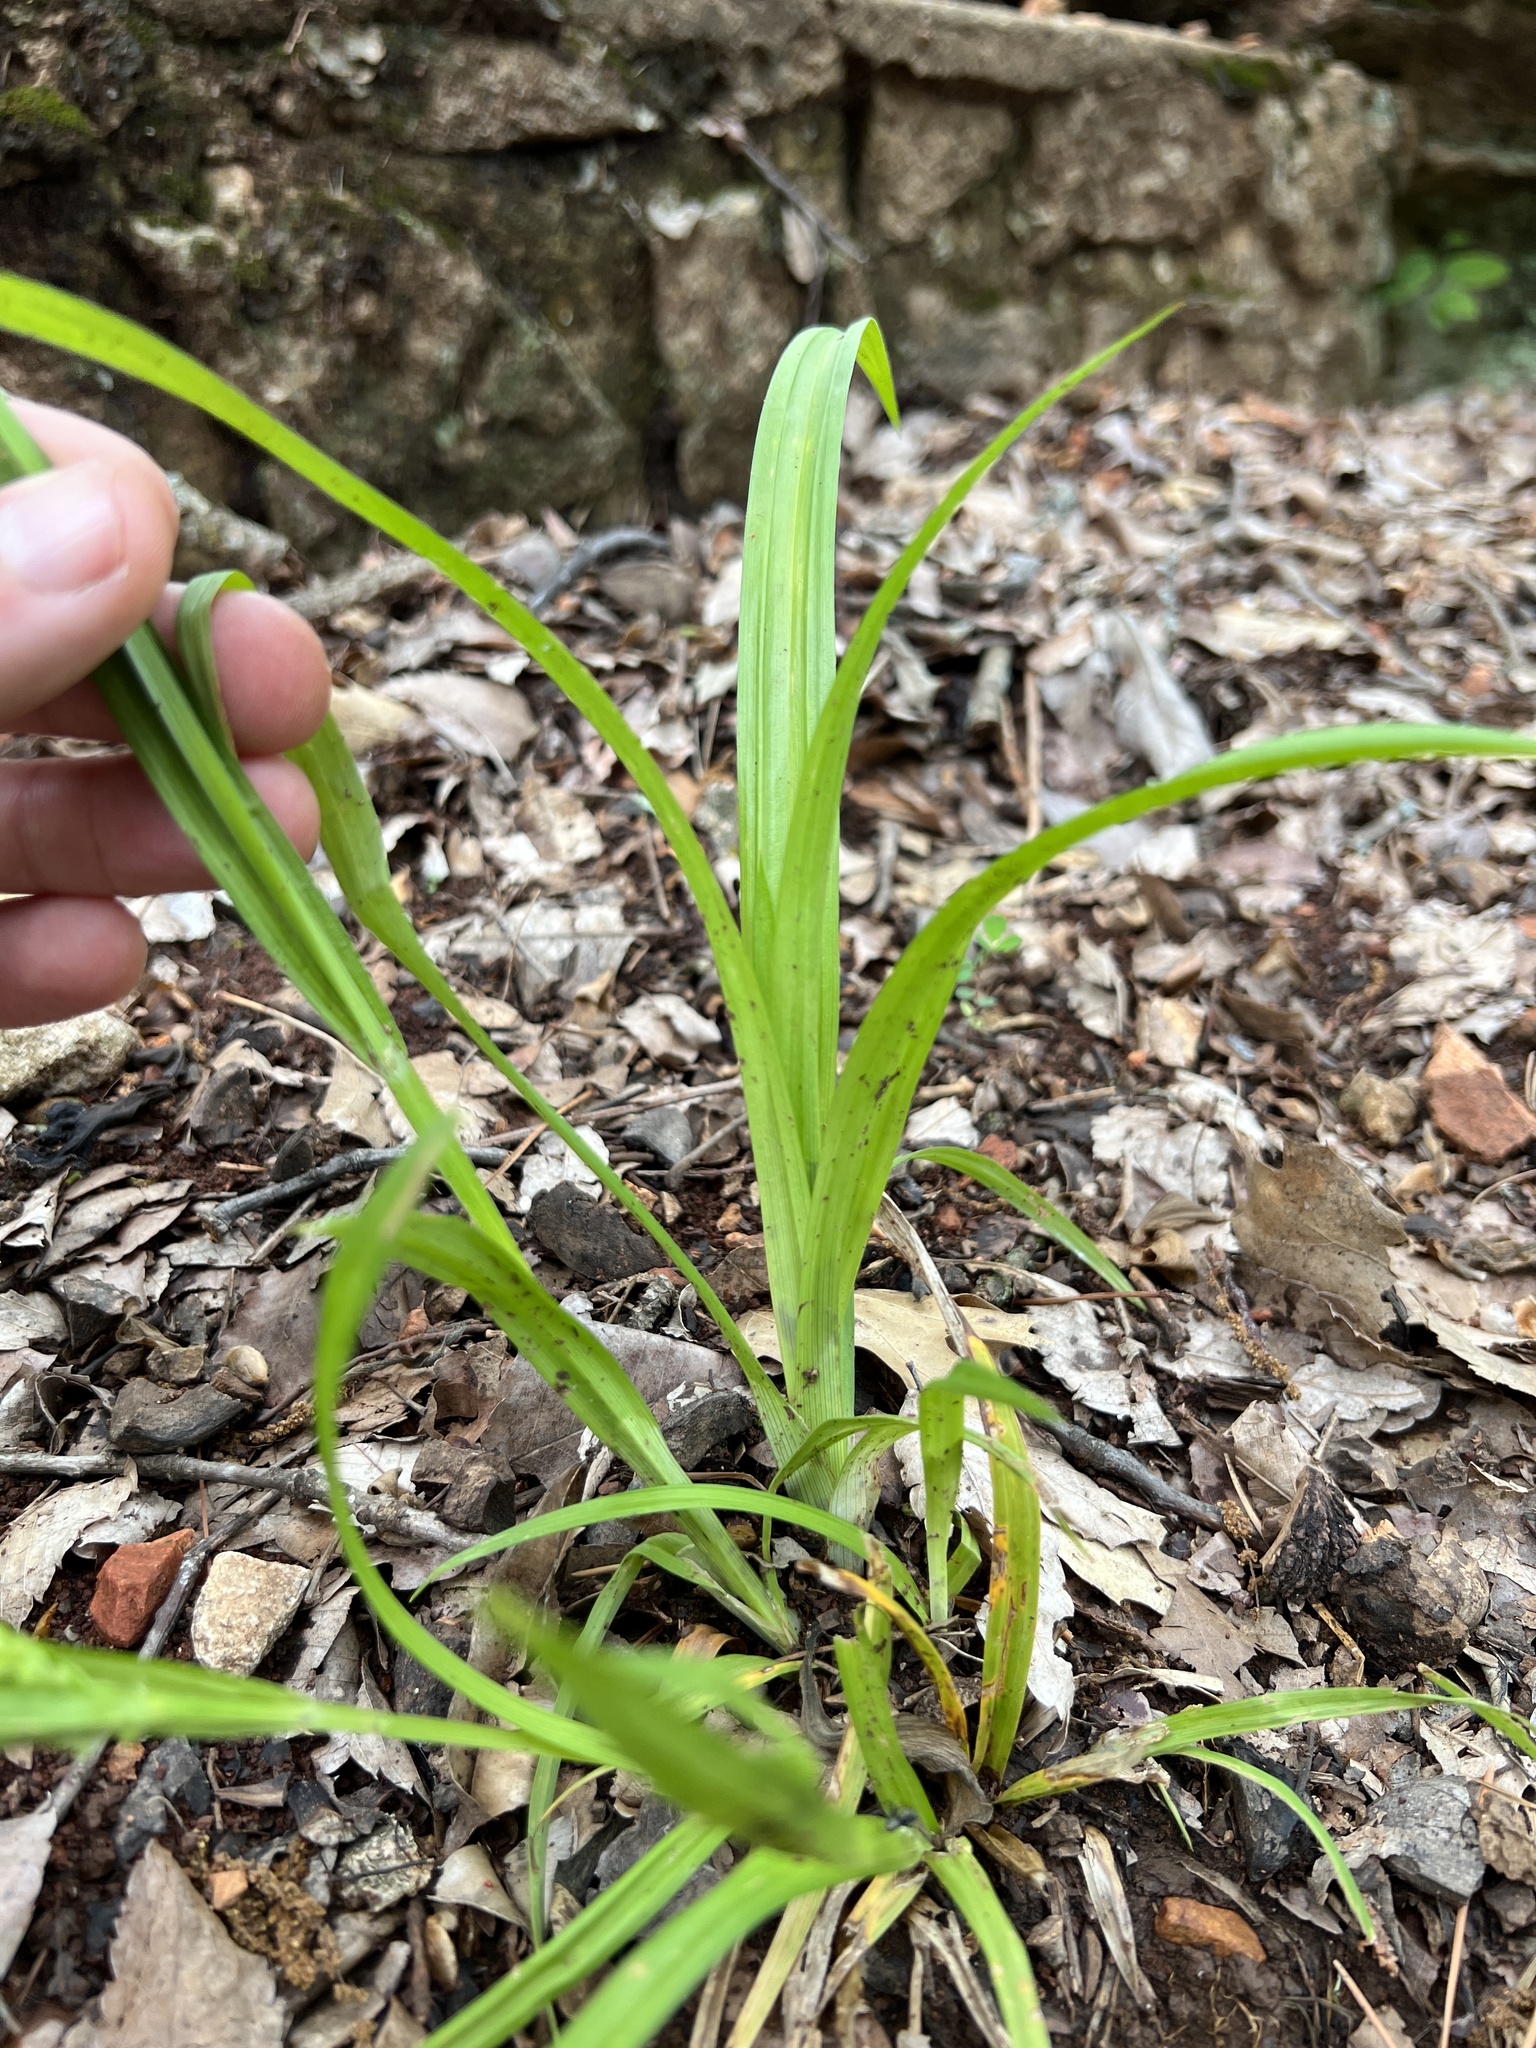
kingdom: Plantae
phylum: Tracheophyta
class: Liliopsida
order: Poales
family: Cyperaceae
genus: Carex
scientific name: Carex blanda
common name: Bland sedge
